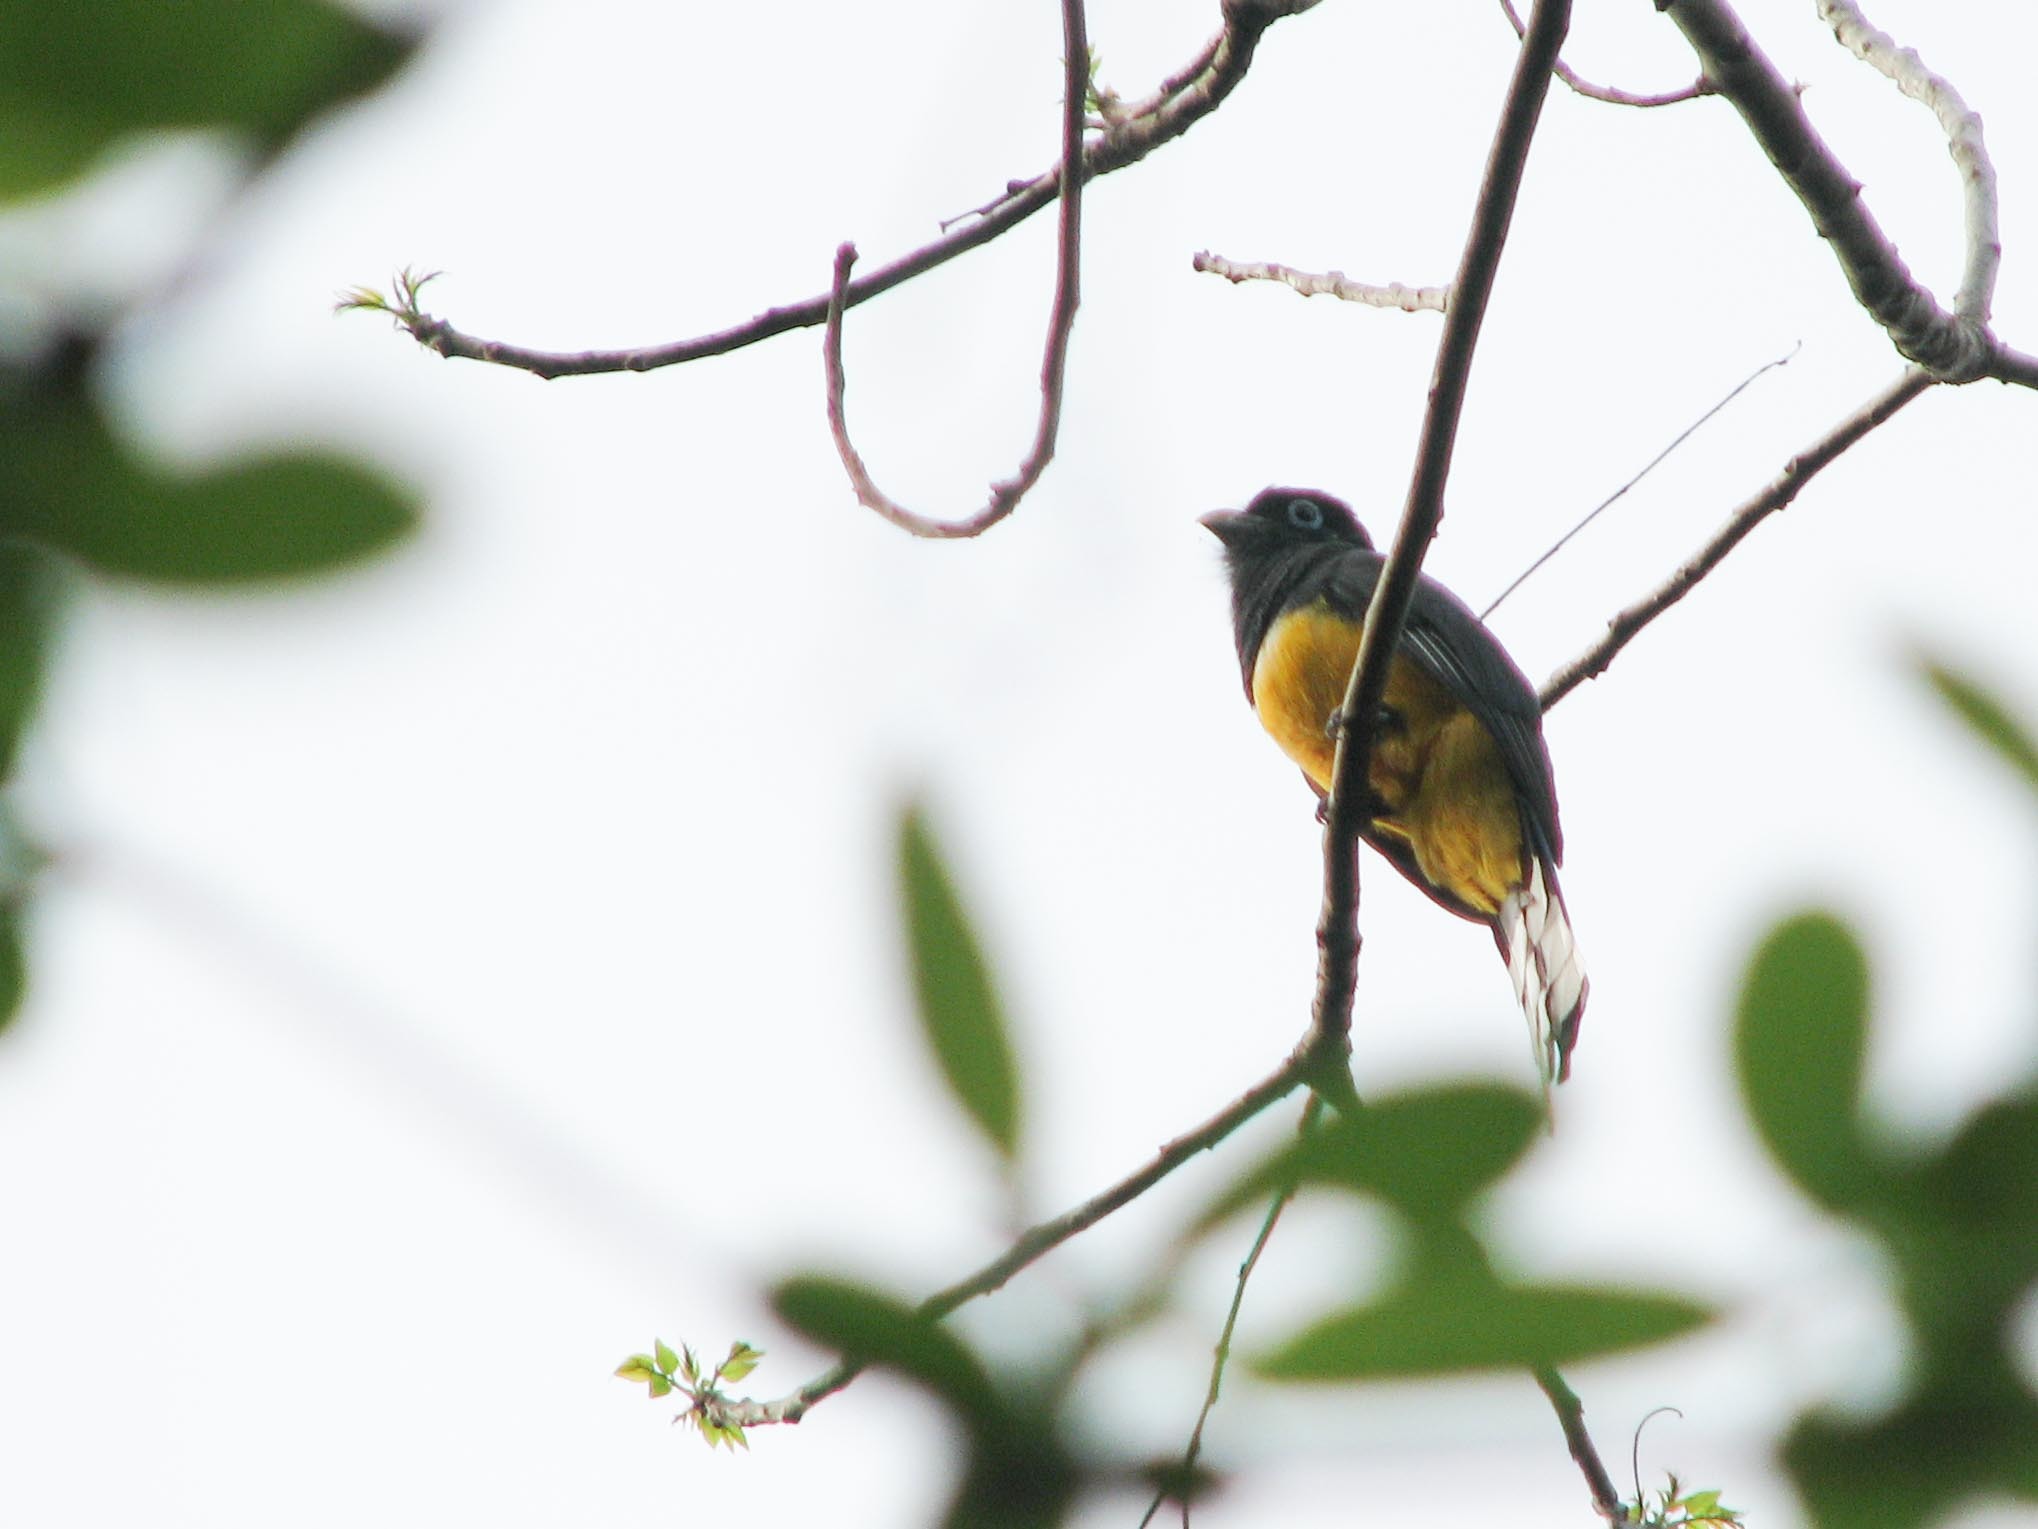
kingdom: Animalia
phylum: Chordata
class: Aves
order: Trogoniformes
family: Trogonidae
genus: Trogon
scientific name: Trogon caligatus
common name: Gartered trogon
